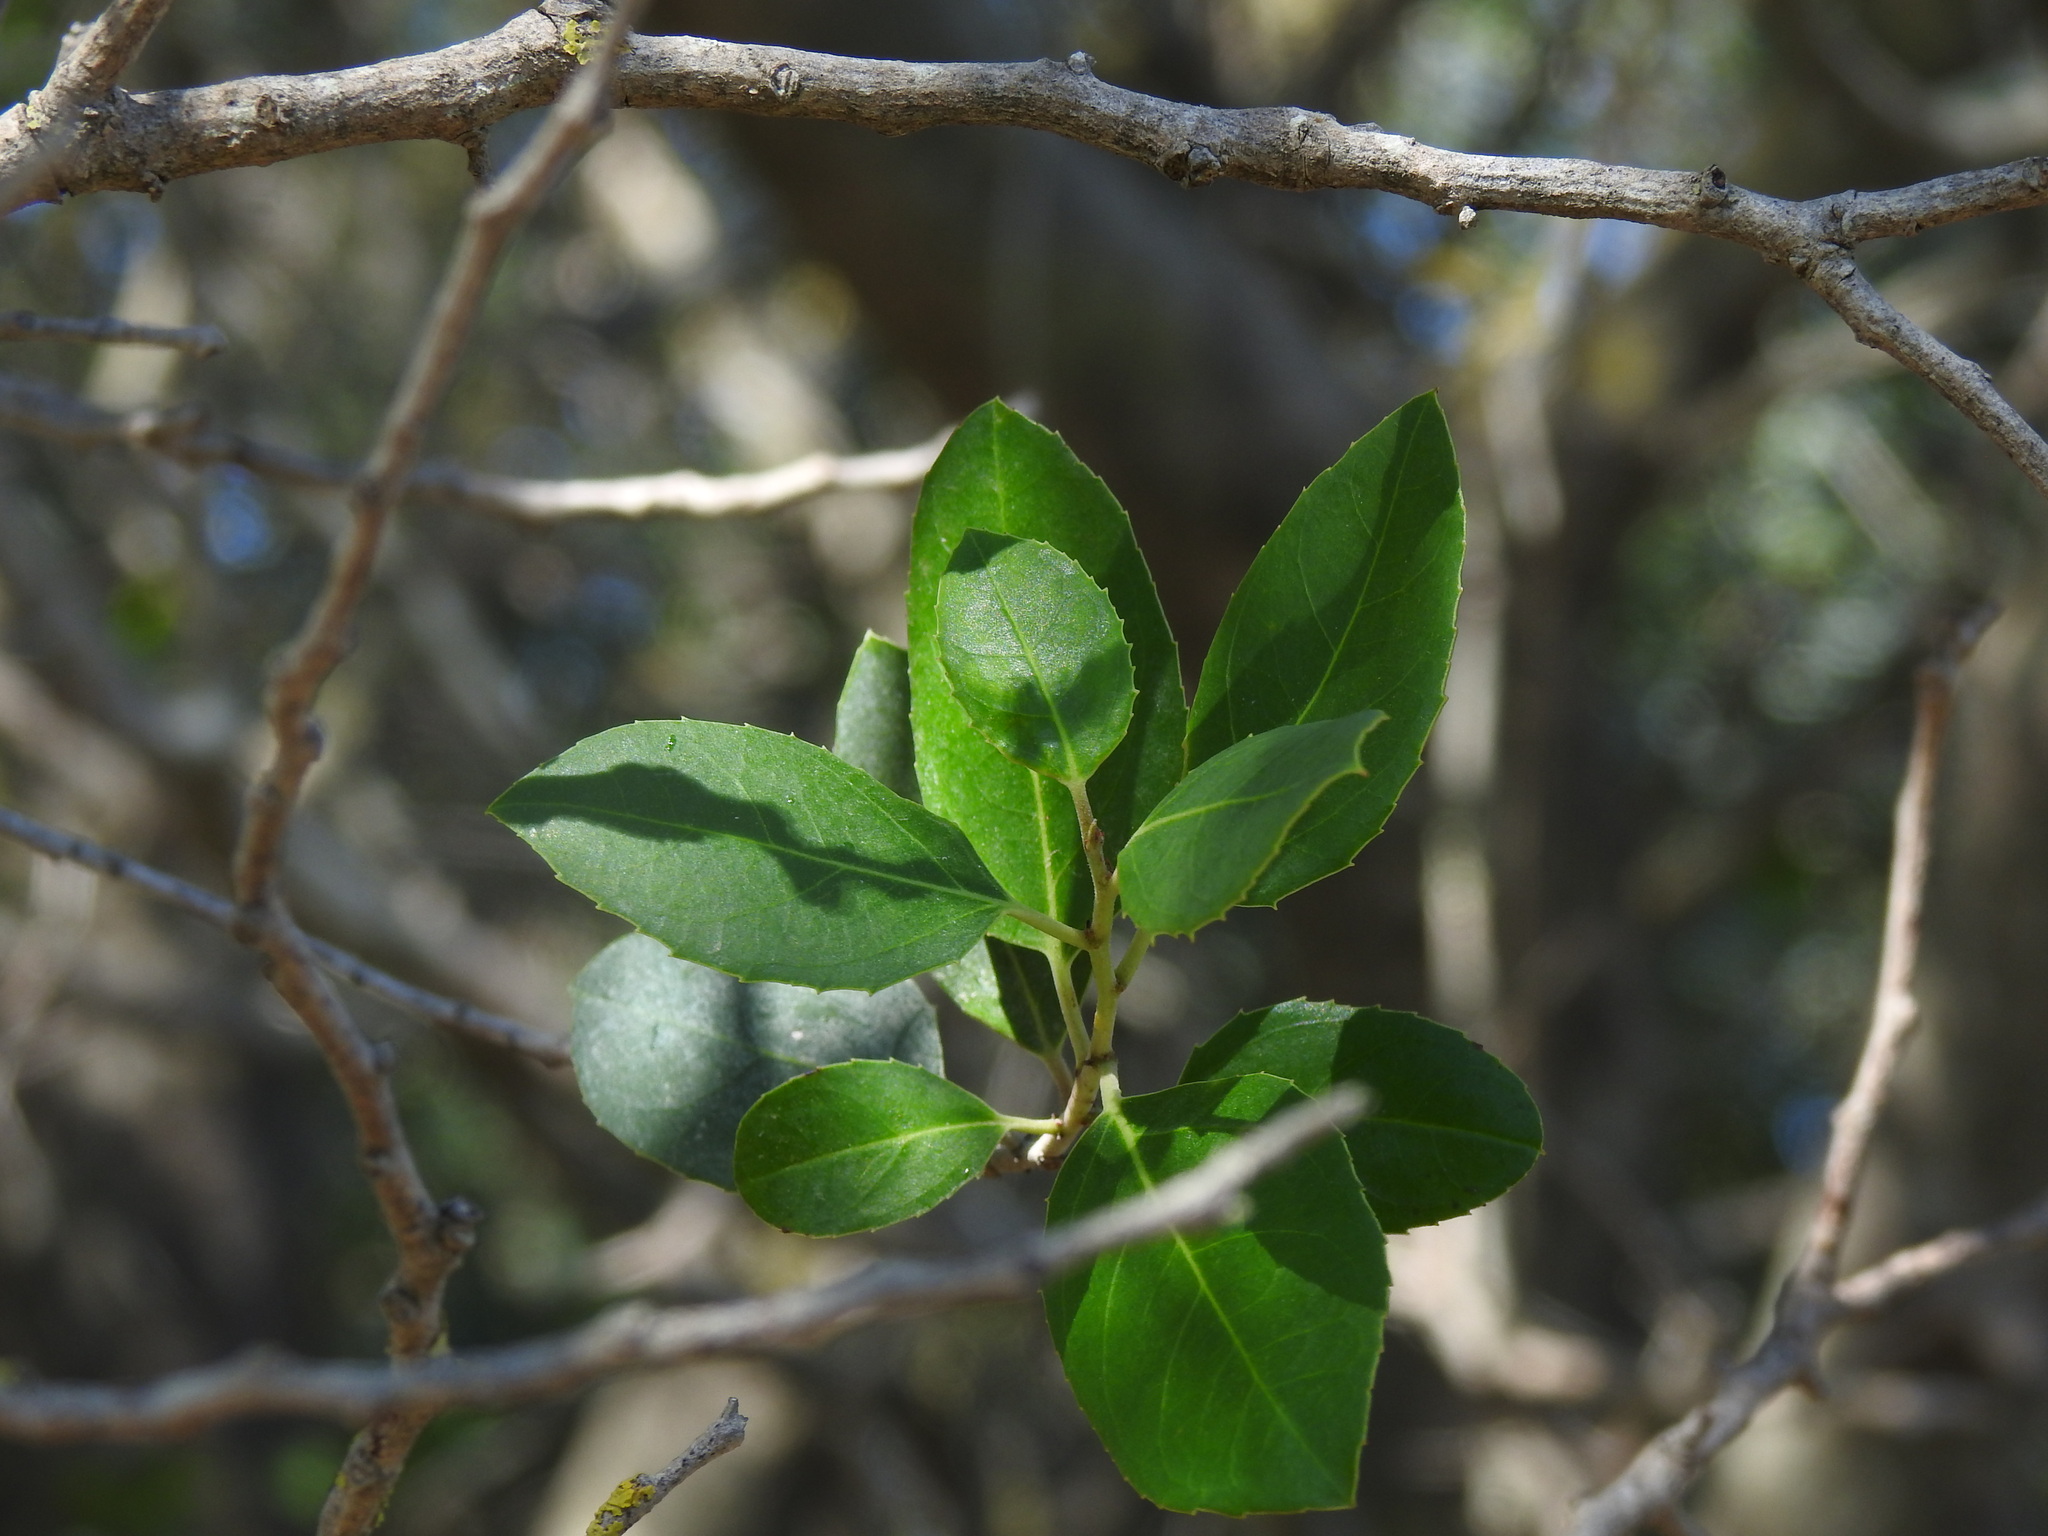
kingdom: Plantae
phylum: Tracheophyta
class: Magnoliopsida
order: Rosales
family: Rhamnaceae
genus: Rhamnus
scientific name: Rhamnus alaternus
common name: Mediterranean buckthorn
